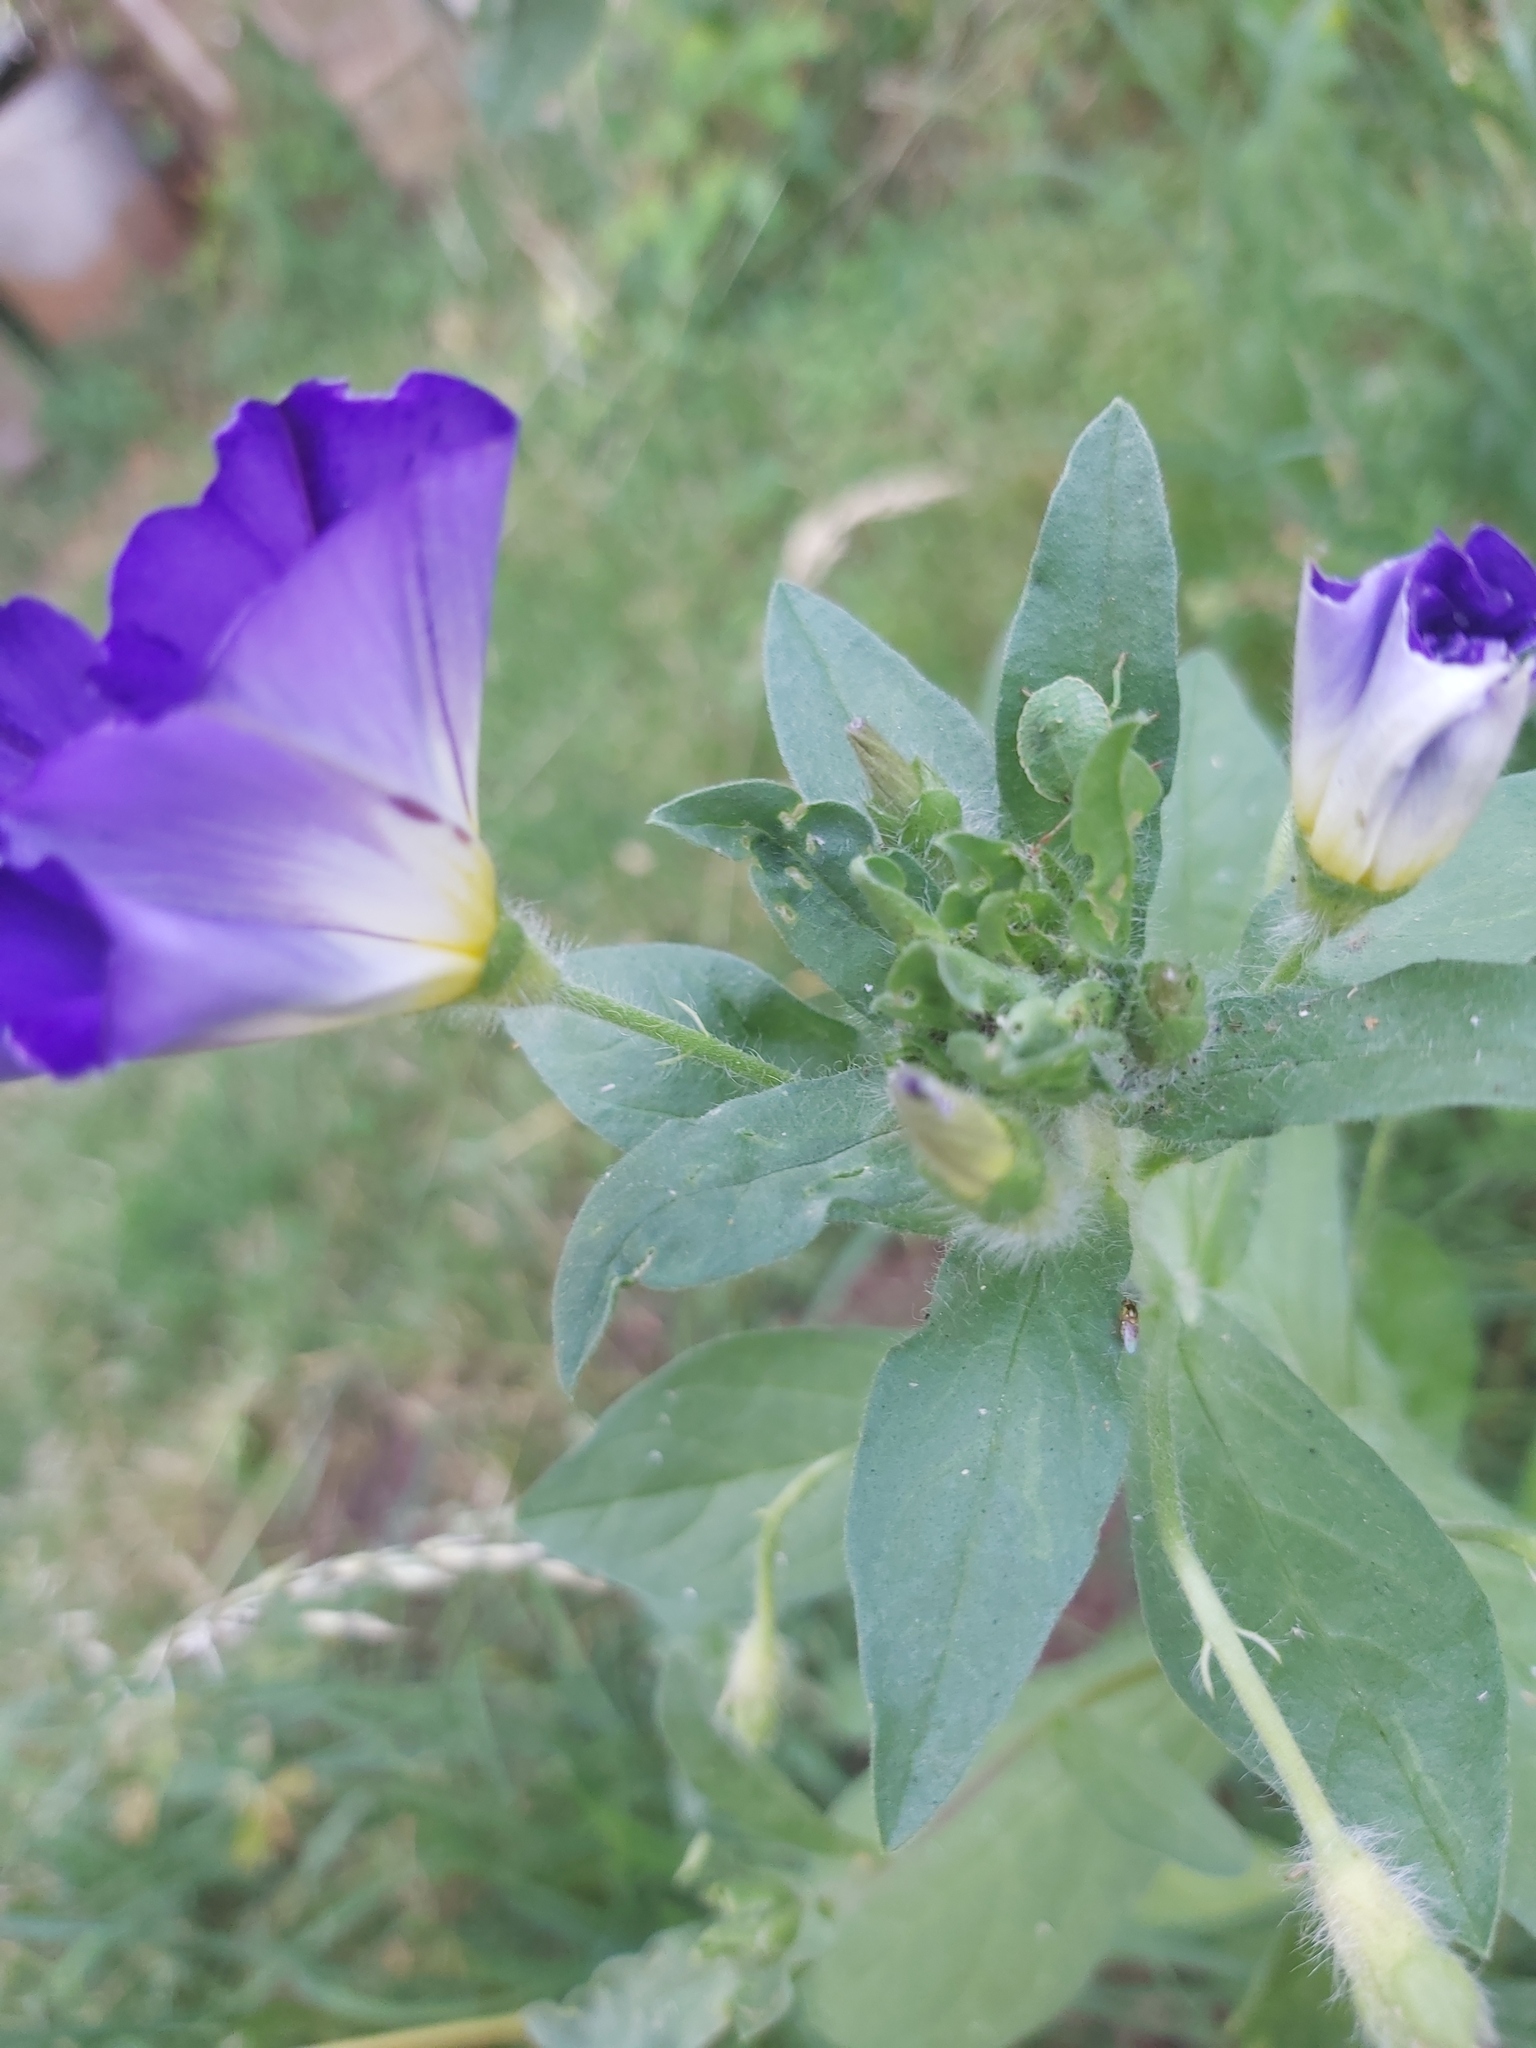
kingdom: Plantae
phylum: Tracheophyta
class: Magnoliopsida
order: Solanales
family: Convolvulaceae
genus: Convolvulus
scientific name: Convolvulus tricolor
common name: Dwarf morning-glory
